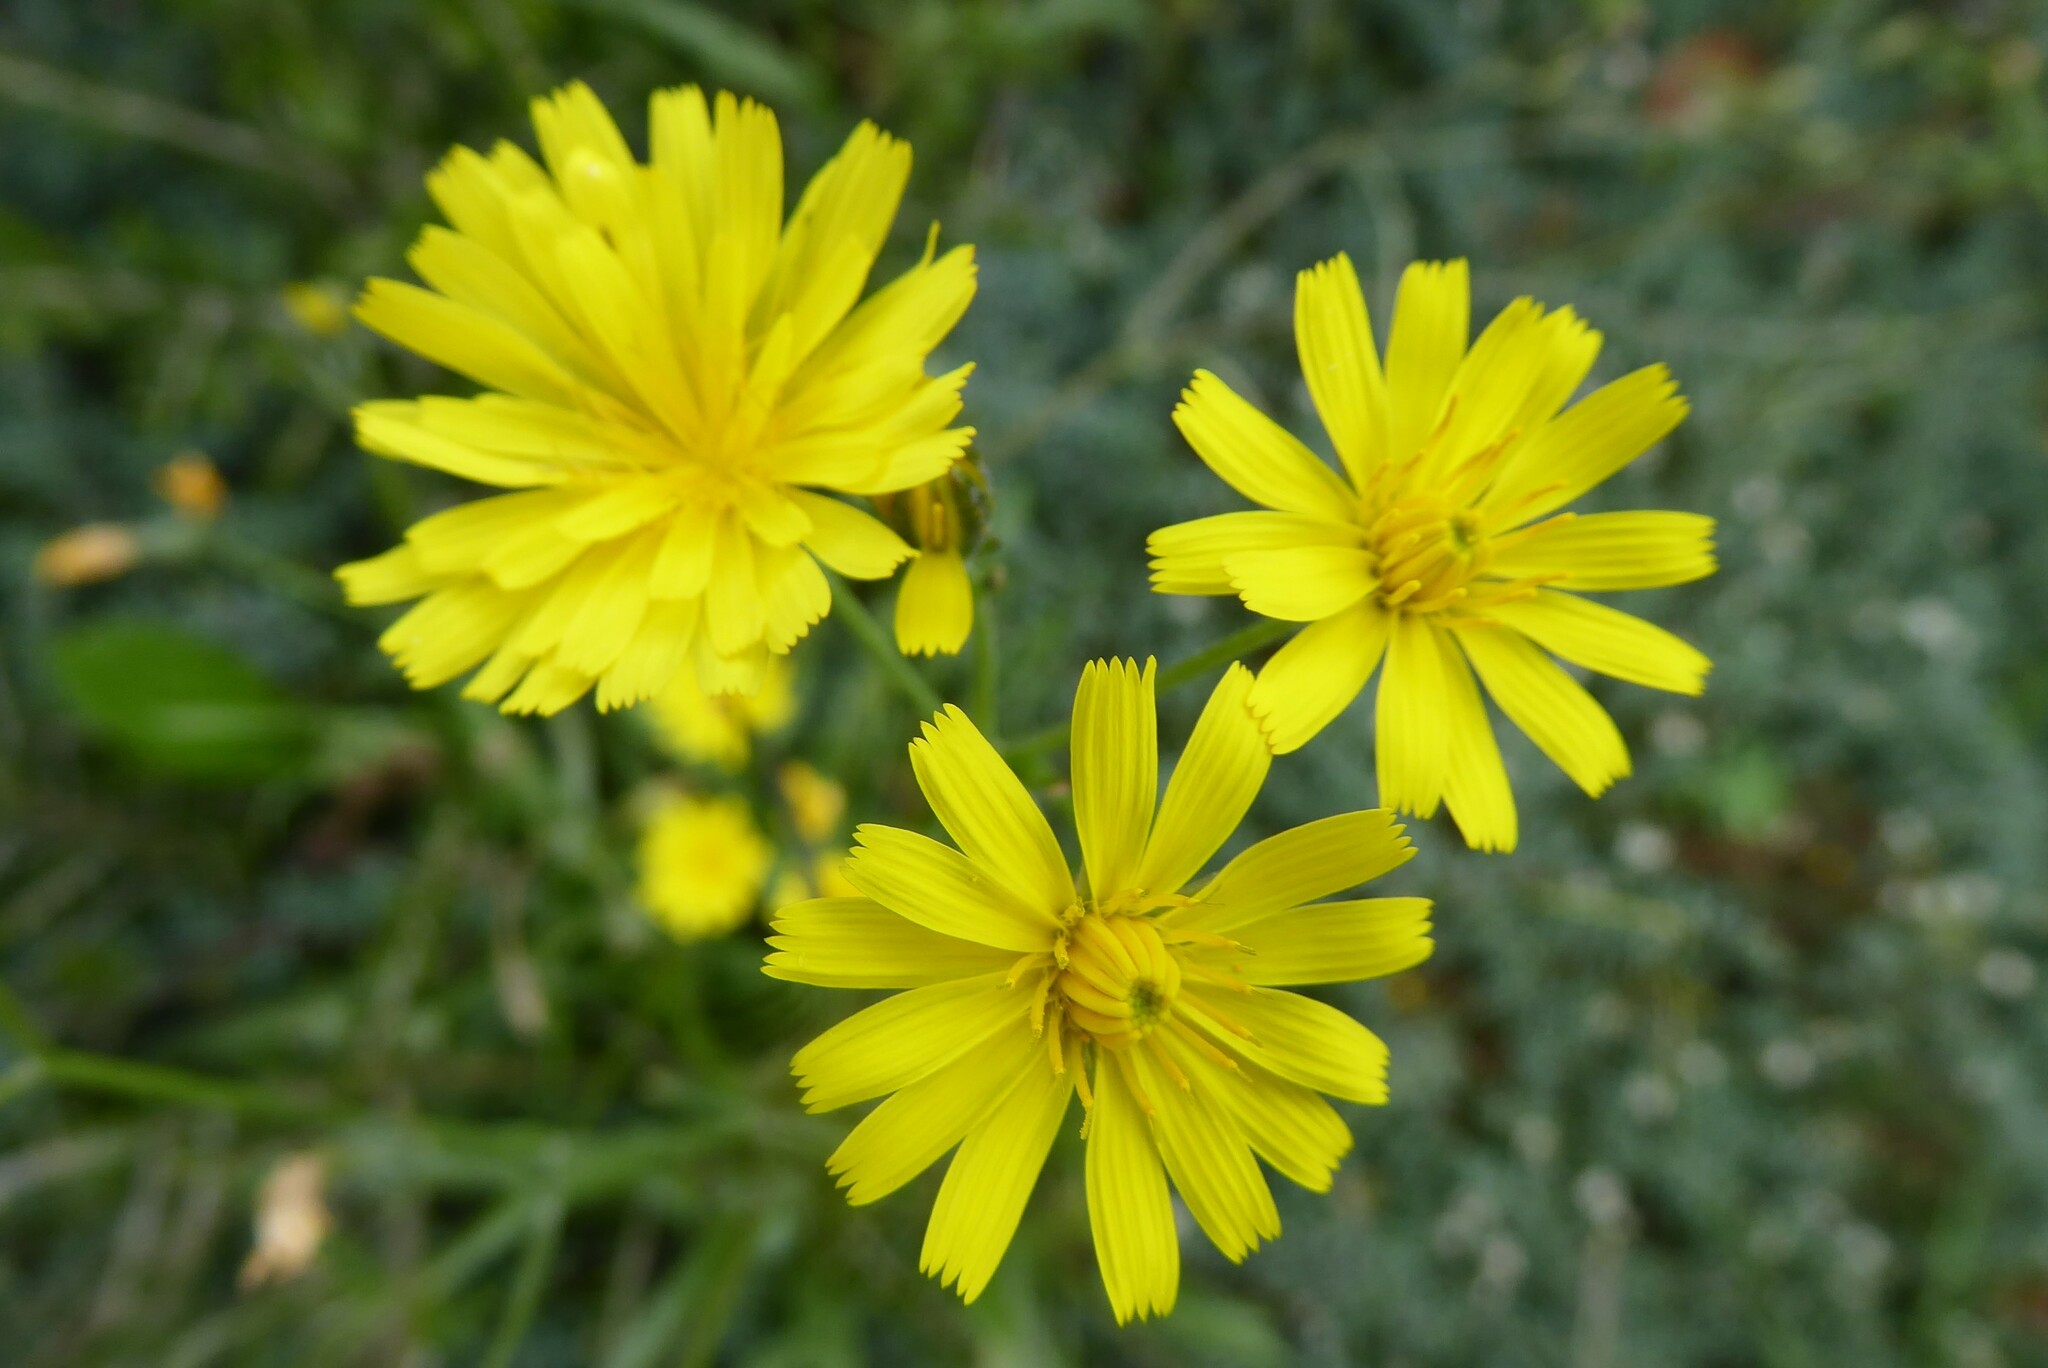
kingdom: Plantae
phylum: Tracheophyta
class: Magnoliopsida
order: Asterales
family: Asteraceae
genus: Crepis
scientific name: Crepis capillaris
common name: Smooth hawksbeard
